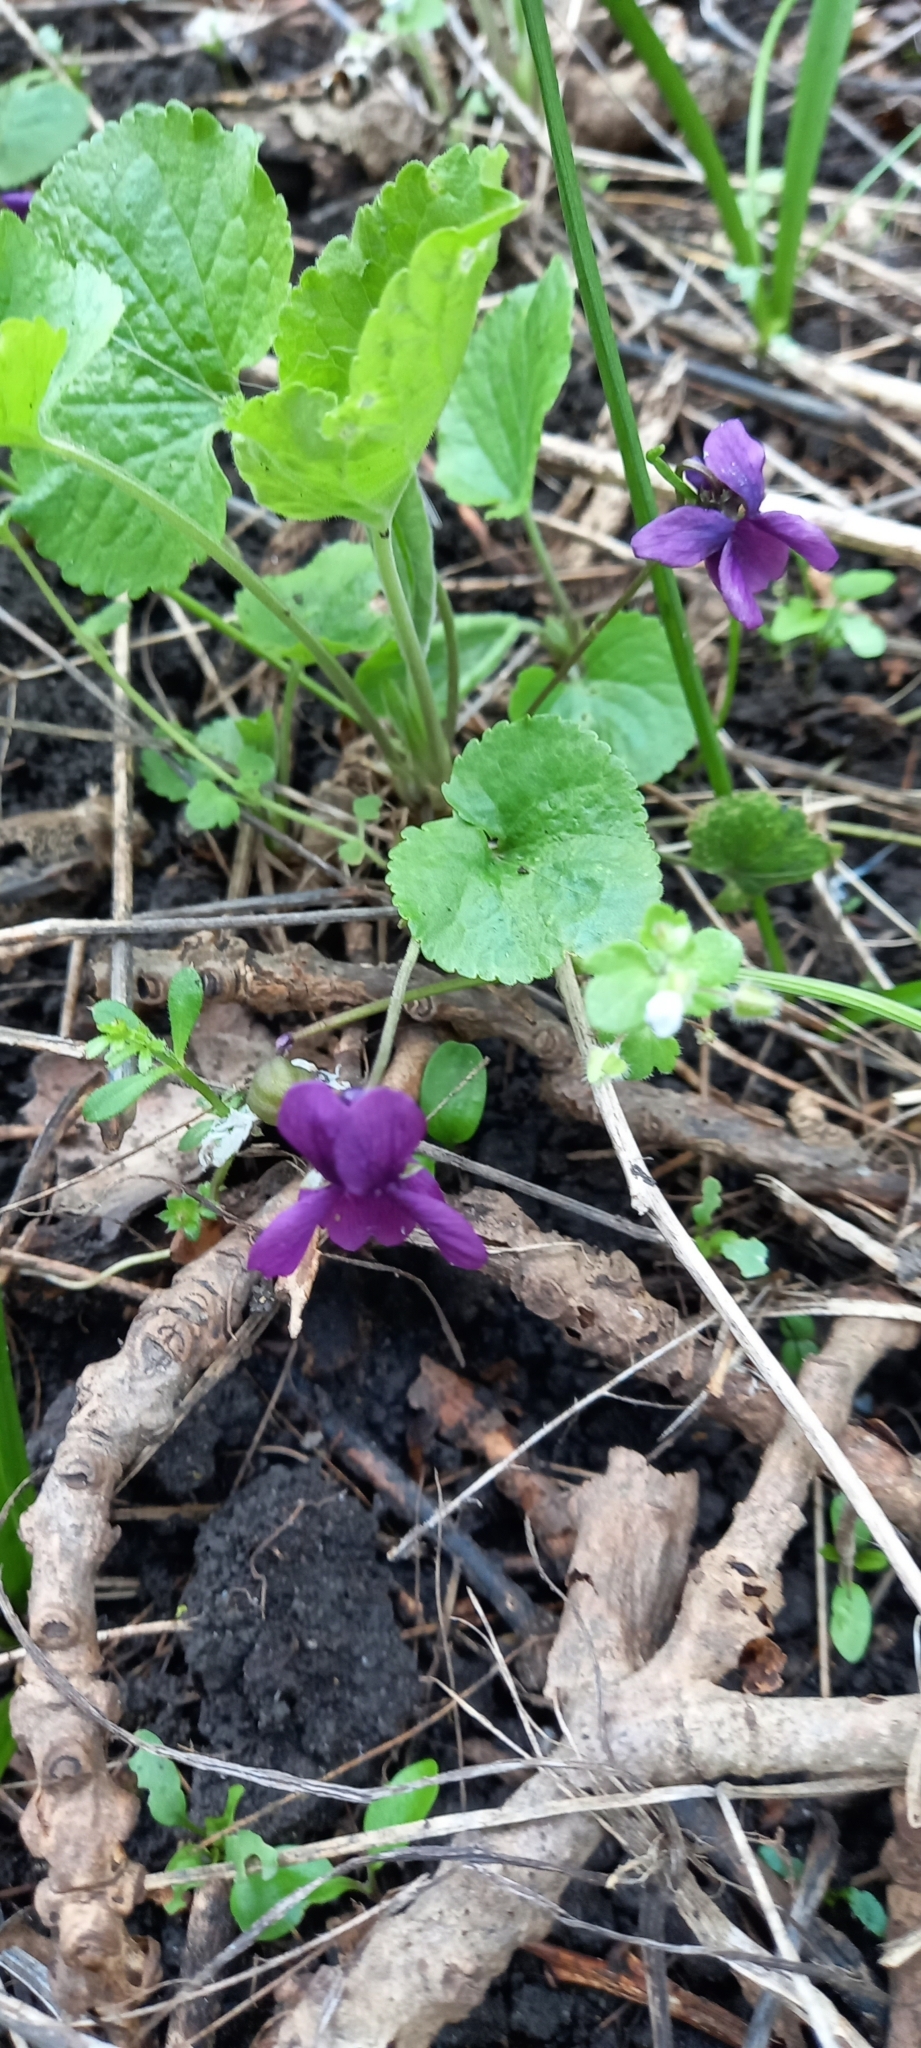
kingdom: Plantae
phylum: Tracheophyta
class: Magnoliopsida
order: Malpighiales
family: Violaceae
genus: Viola
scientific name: Viola odorata
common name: Sweet violet
